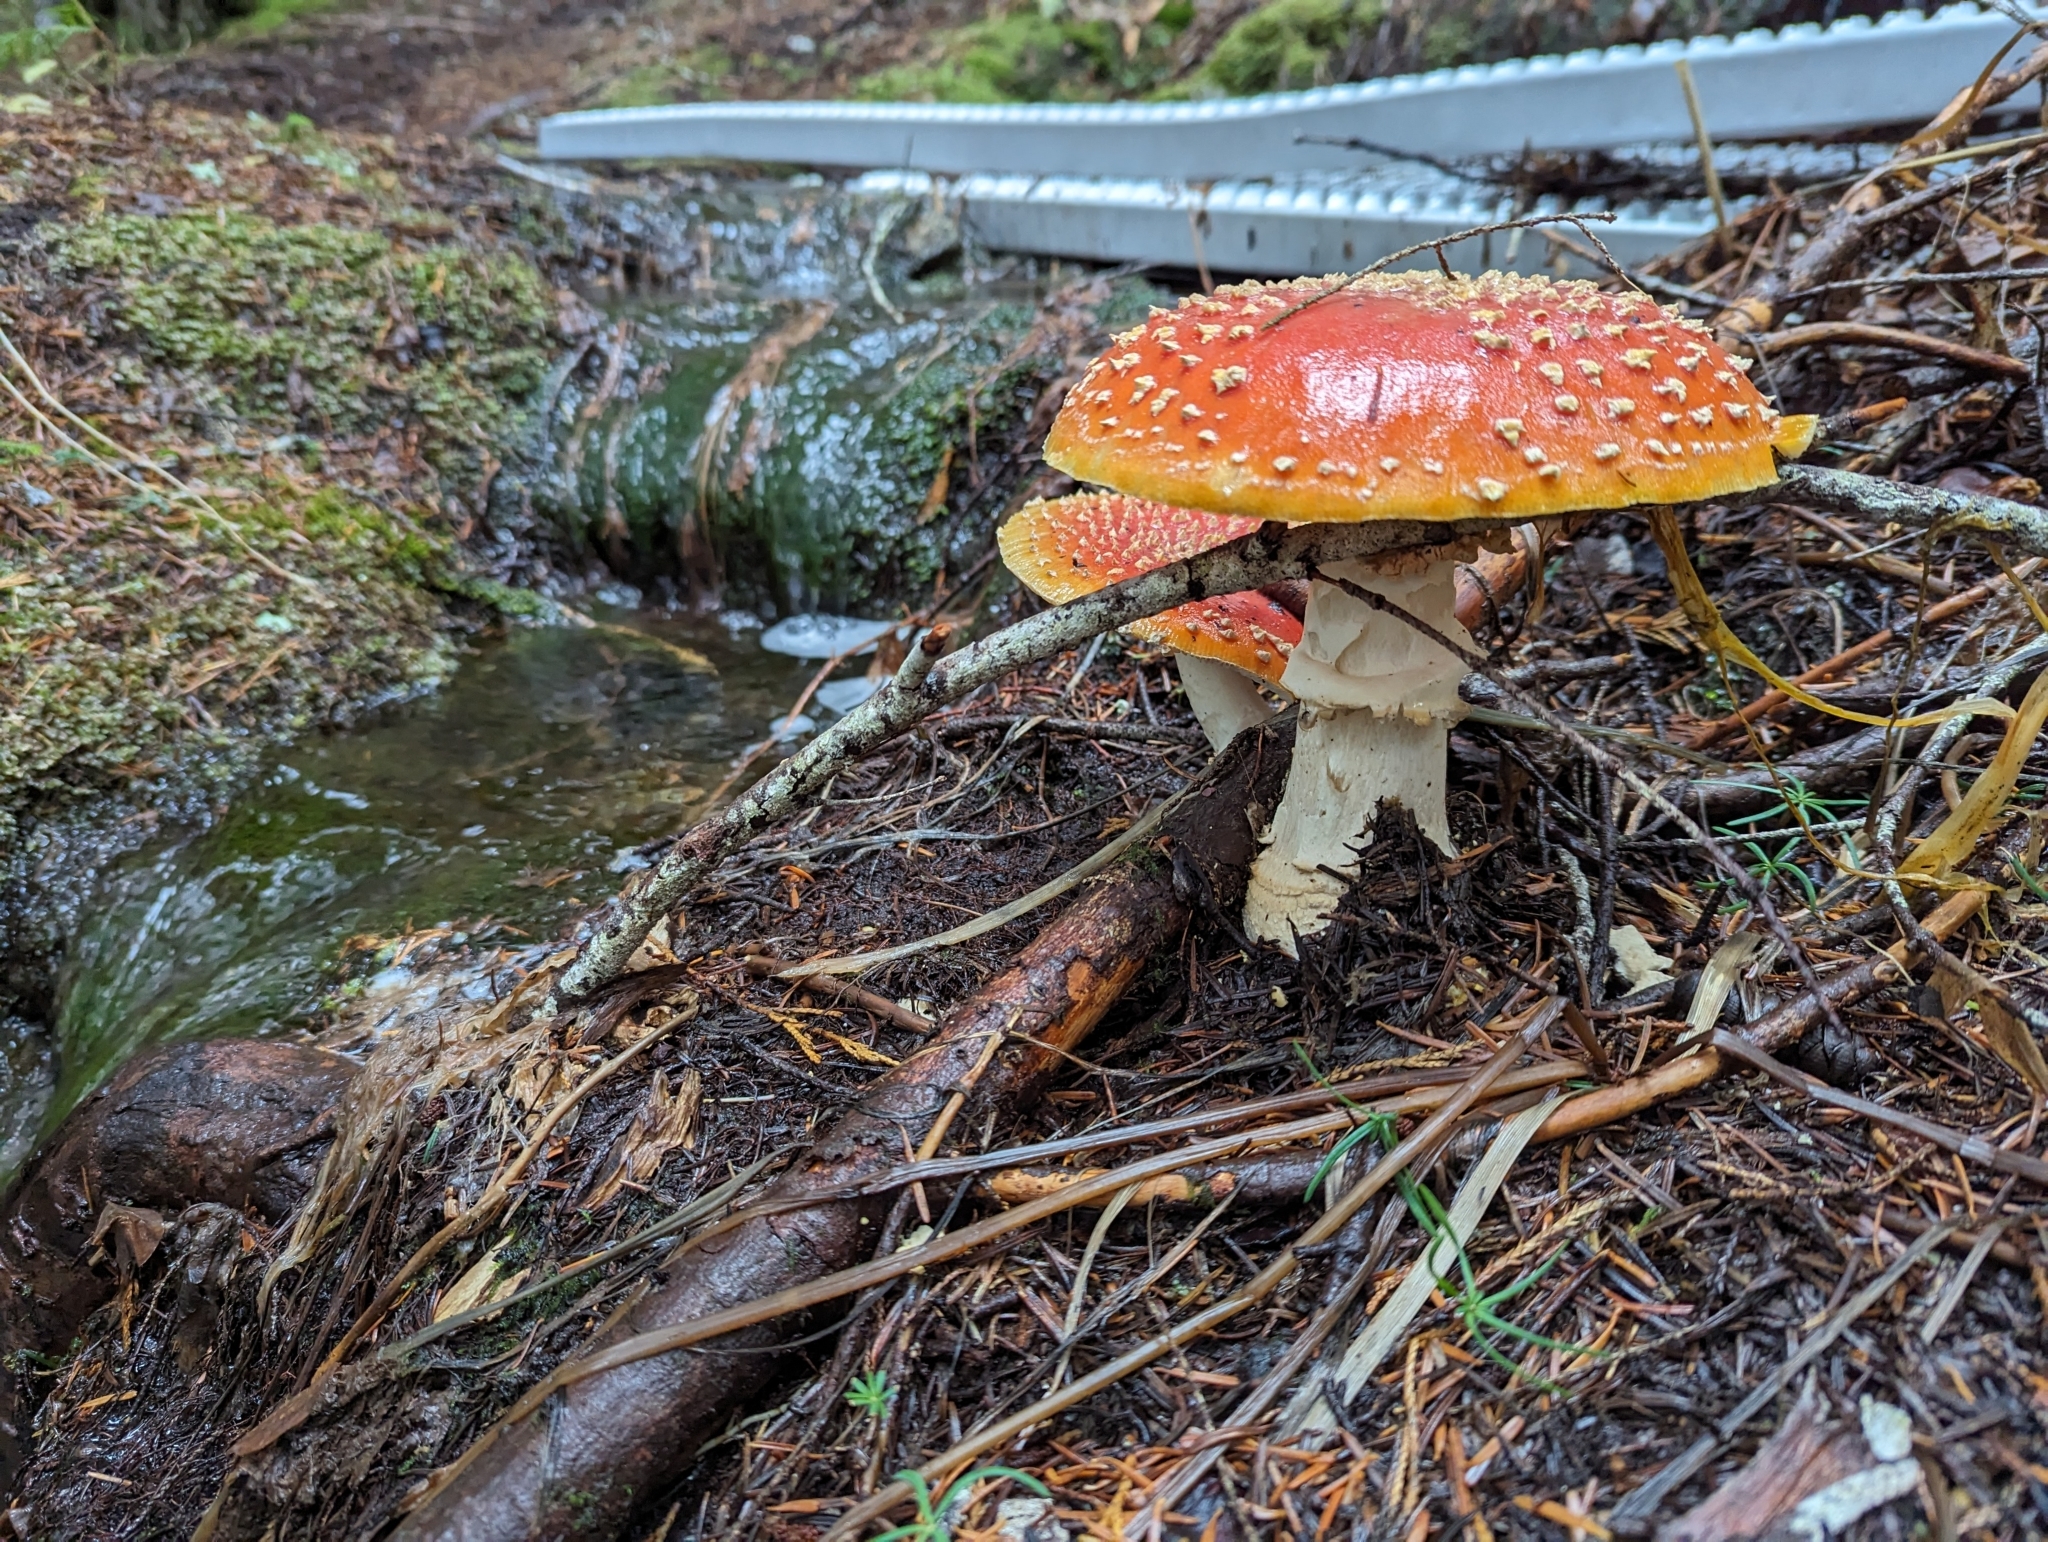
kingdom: Fungi
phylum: Basidiomycota
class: Agaricomycetes
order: Agaricales
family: Amanitaceae
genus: Amanita
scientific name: Amanita muscaria
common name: Fly agaric
